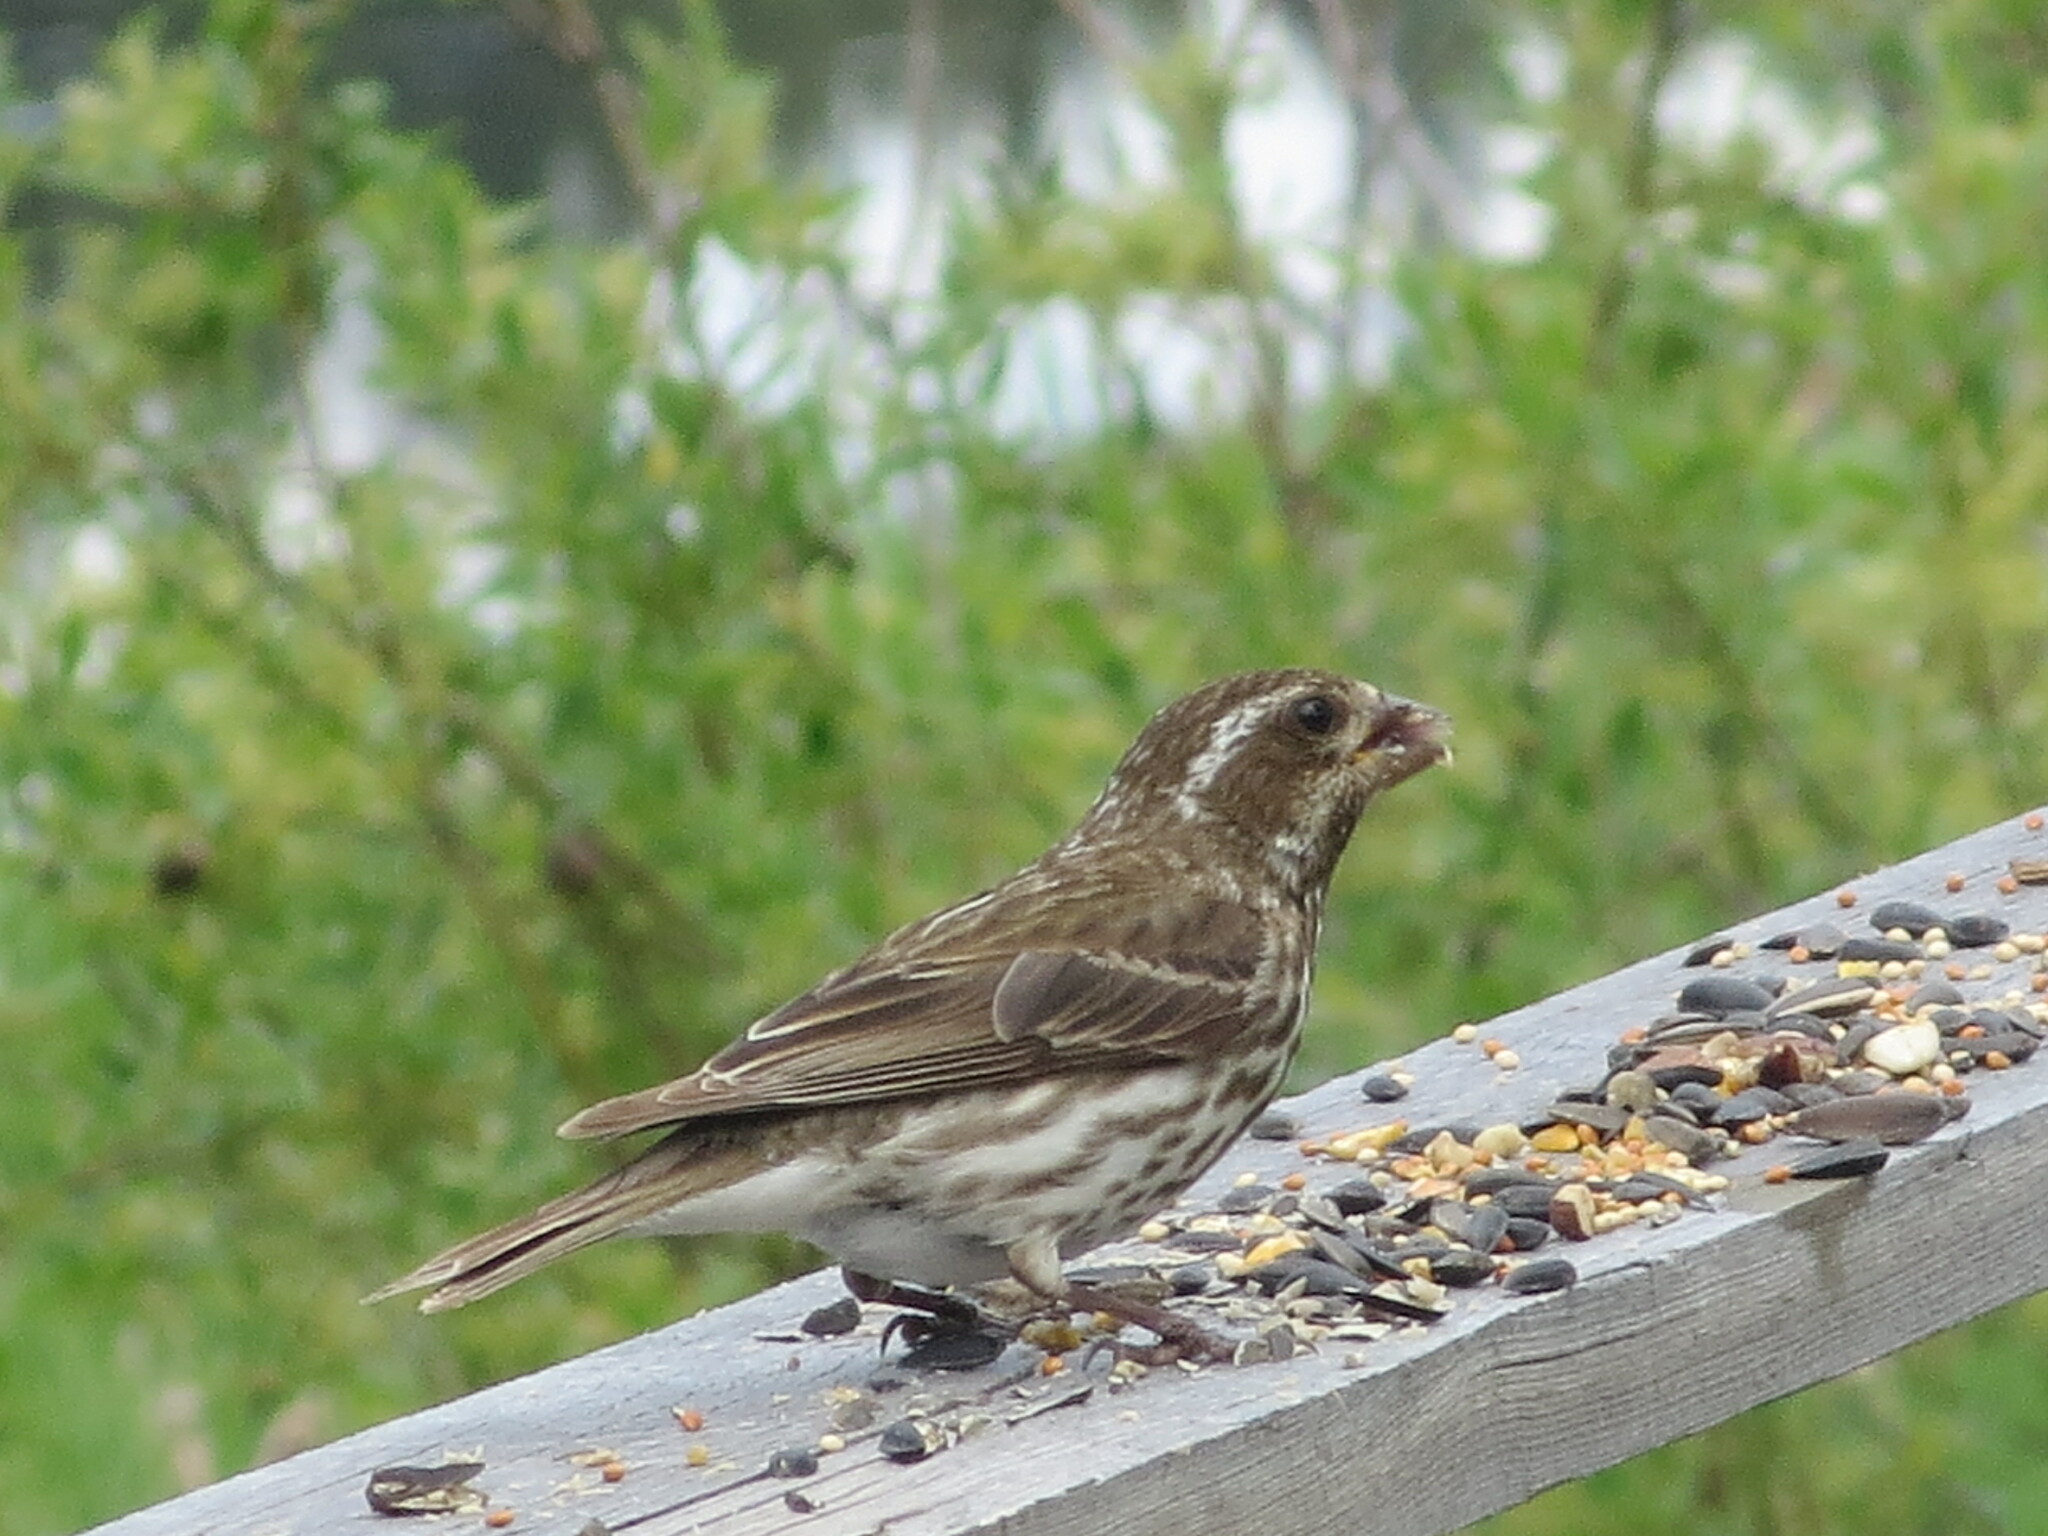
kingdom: Animalia
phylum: Chordata
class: Aves
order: Passeriformes
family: Fringillidae
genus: Haemorhous
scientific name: Haemorhous purpureus
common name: Purple finch
